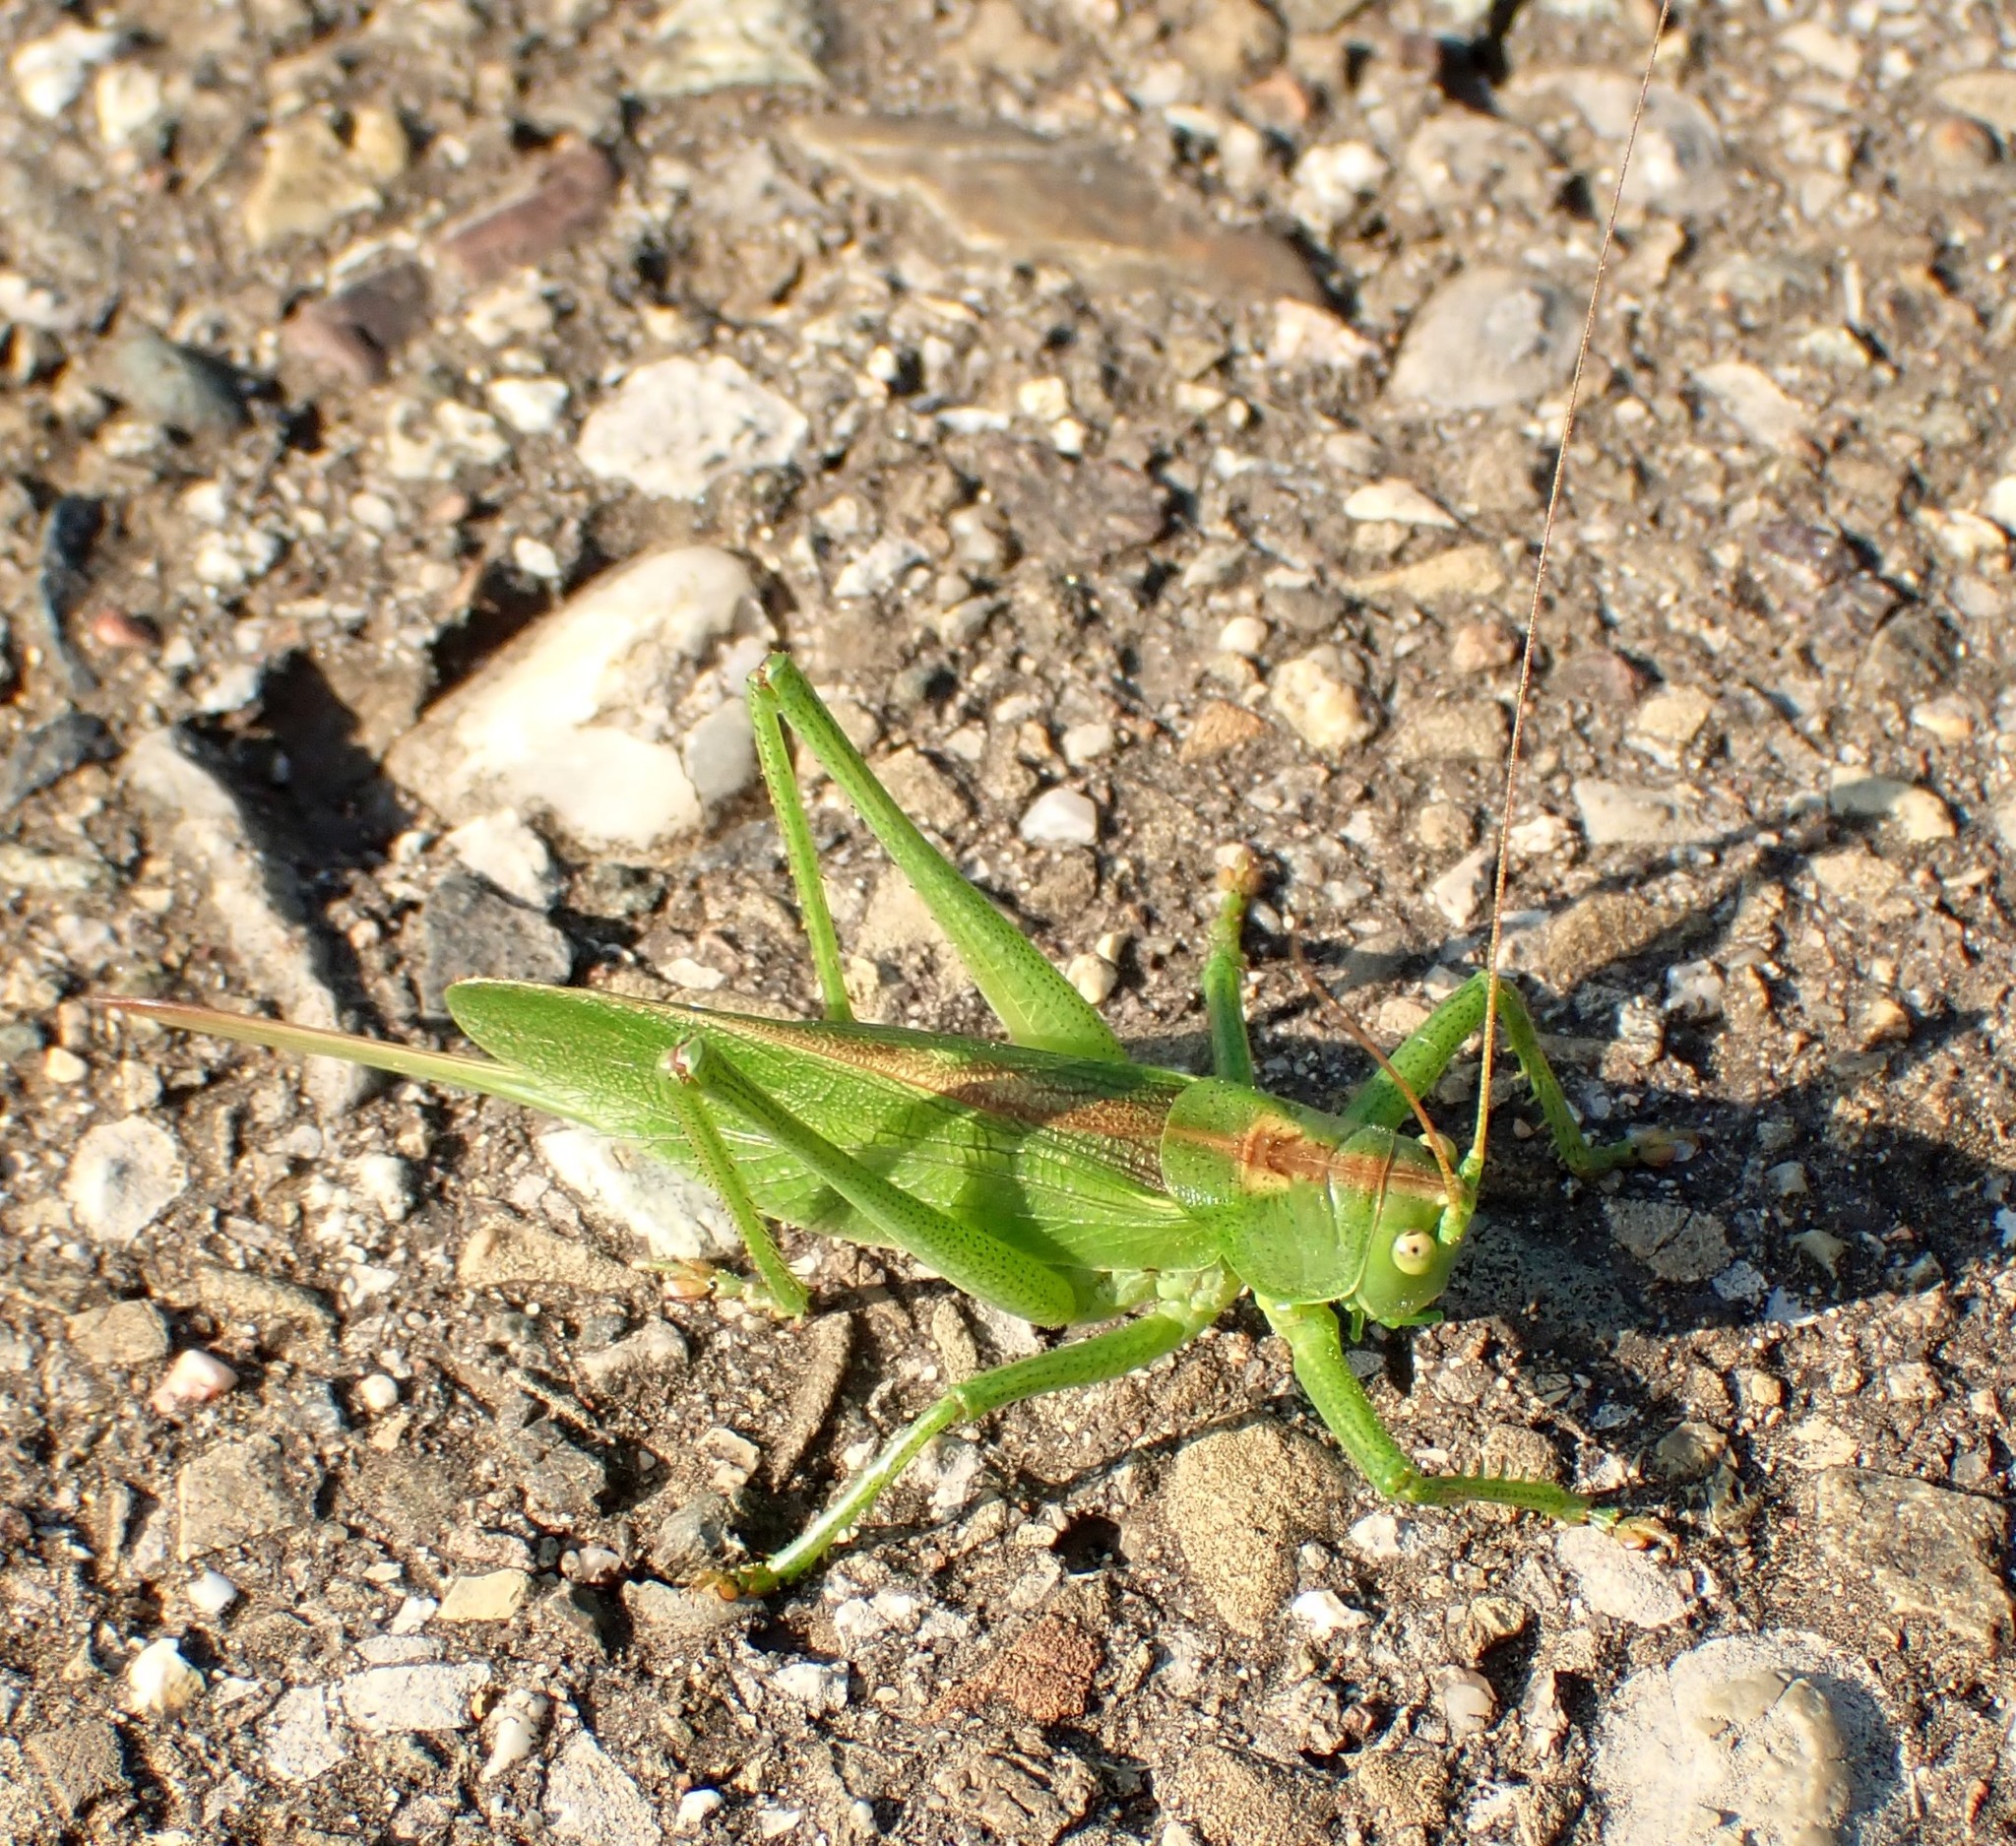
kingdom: Animalia
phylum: Arthropoda
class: Insecta
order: Orthoptera
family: Tettigoniidae
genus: Tettigonia
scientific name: Tettigonia cantans
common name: Upland green bush-cricket
